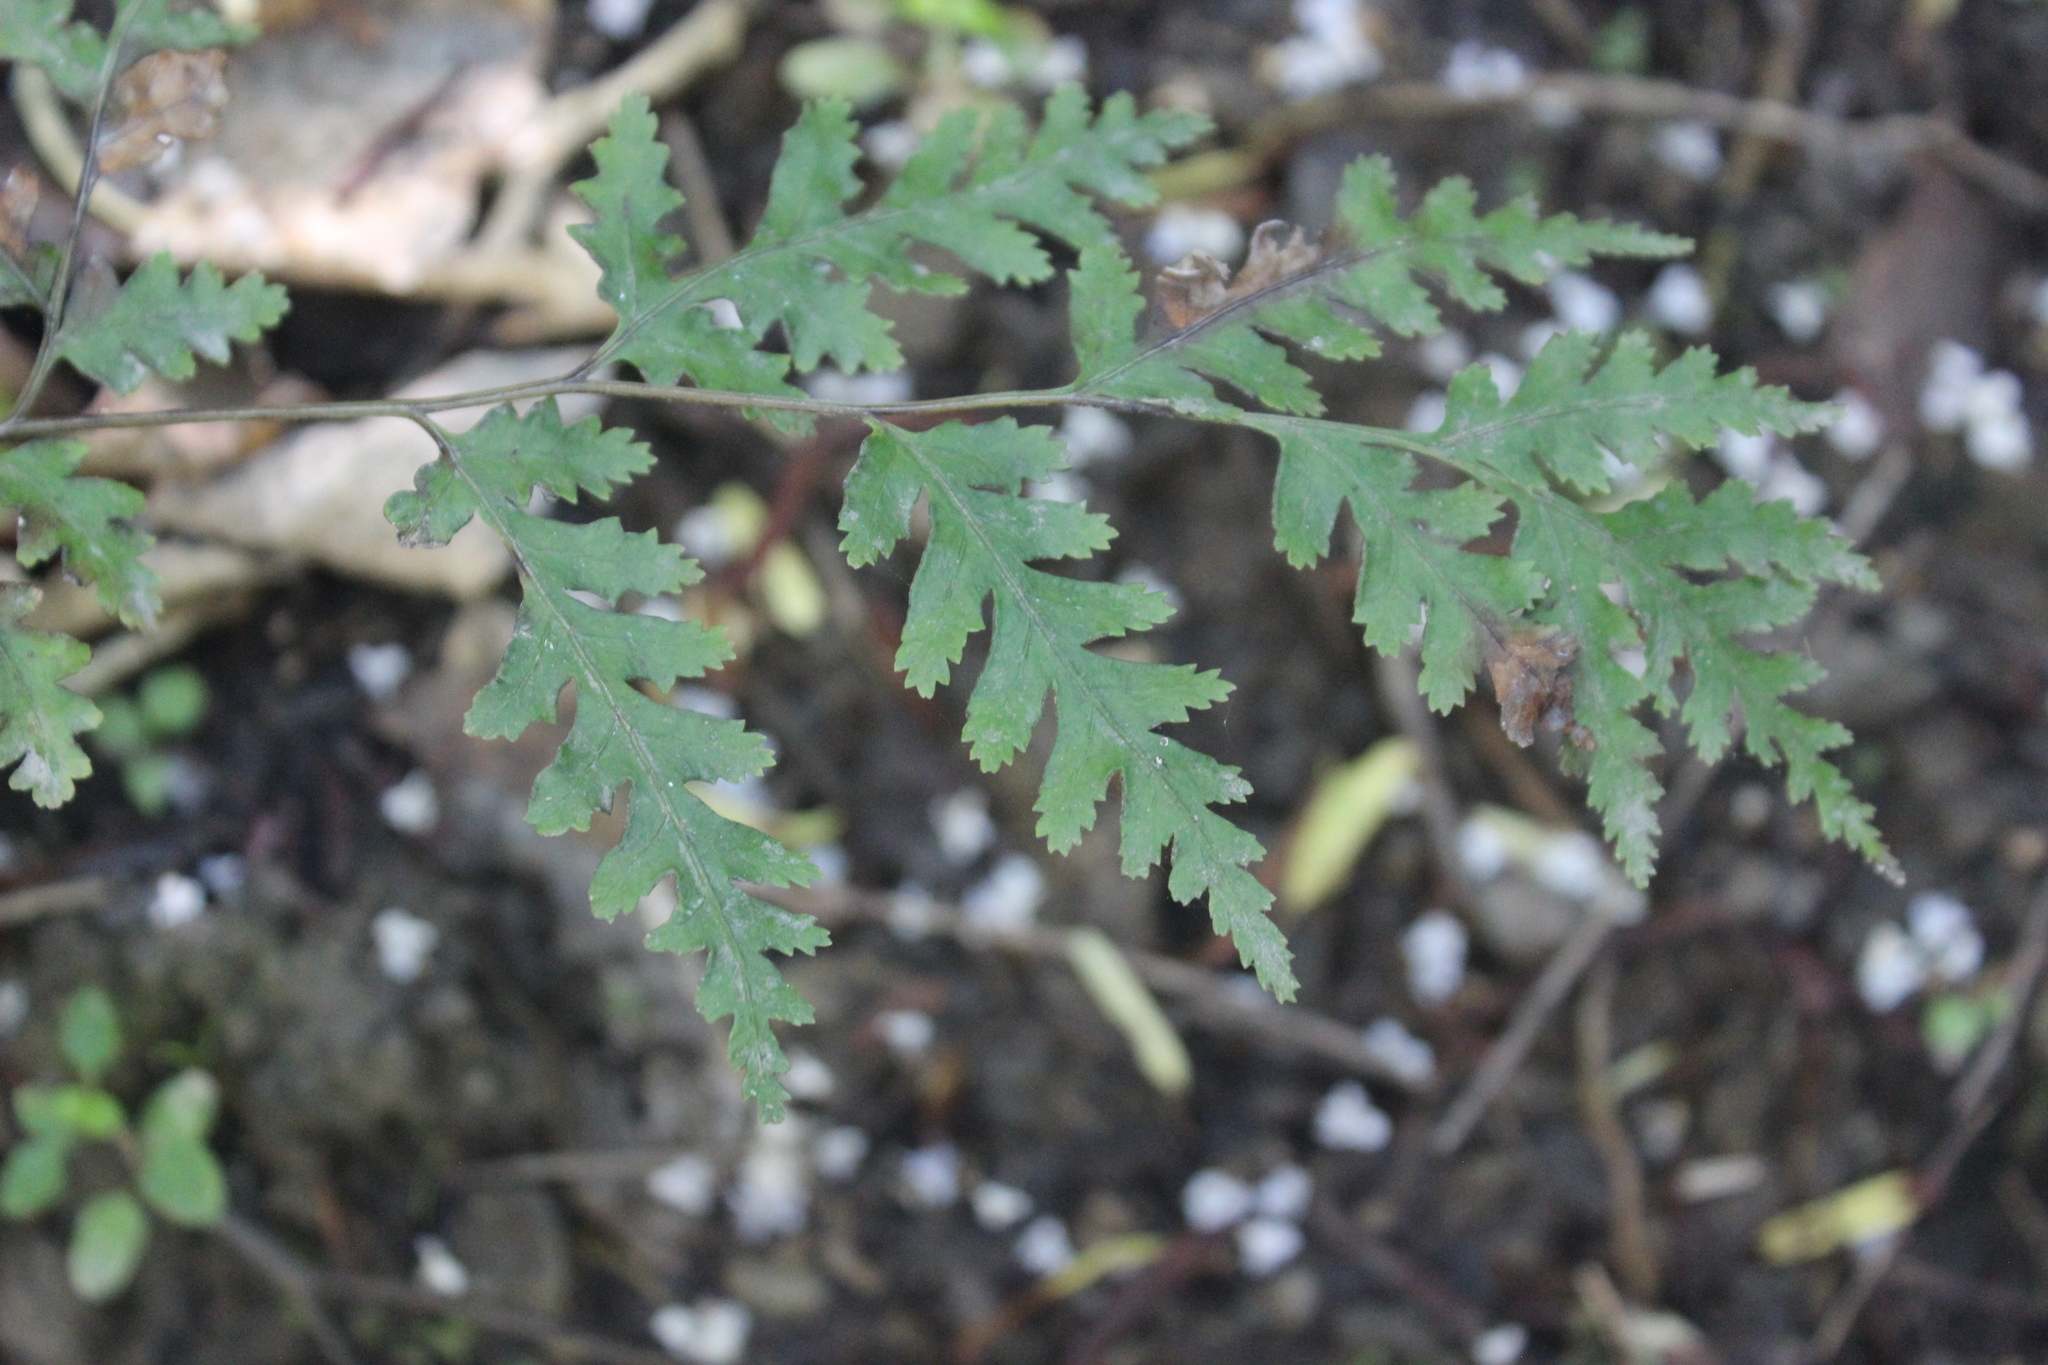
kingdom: Plantae
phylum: Tracheophyta
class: Polypodiopsida
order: Polypodiales
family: Pteridaceae
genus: Pteris
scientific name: Pteris macilenta
